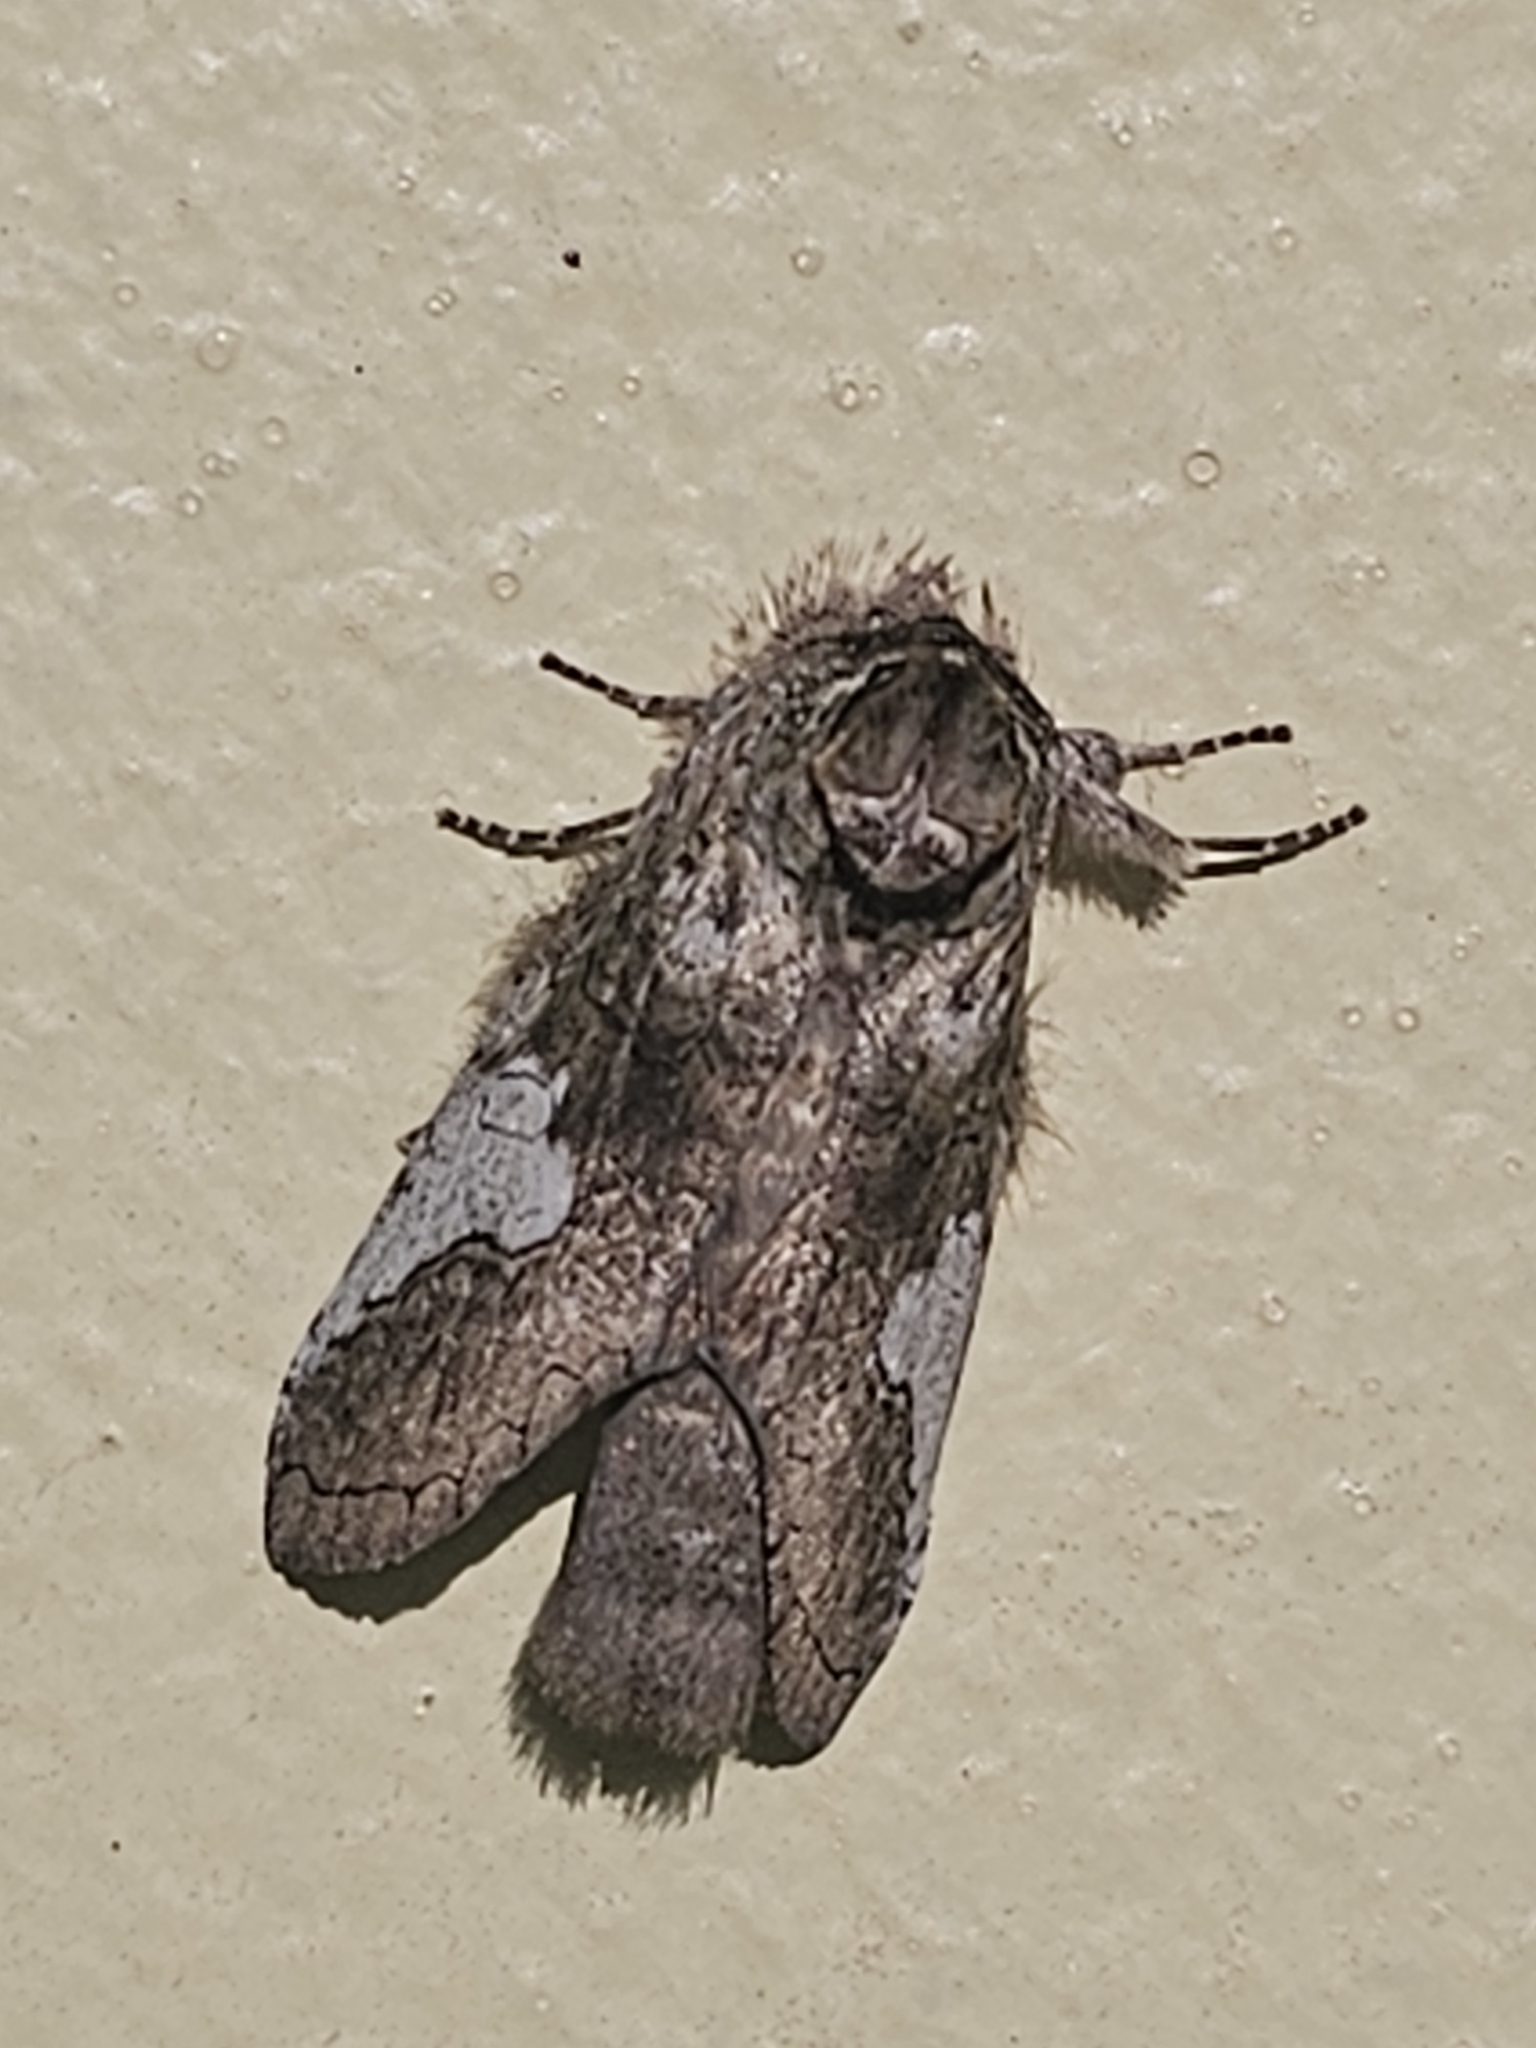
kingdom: Animalia
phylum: Arthropoda
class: Insecta
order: Lepidoptera
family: Notodontidae
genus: Rifargia
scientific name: Rifargia apella
